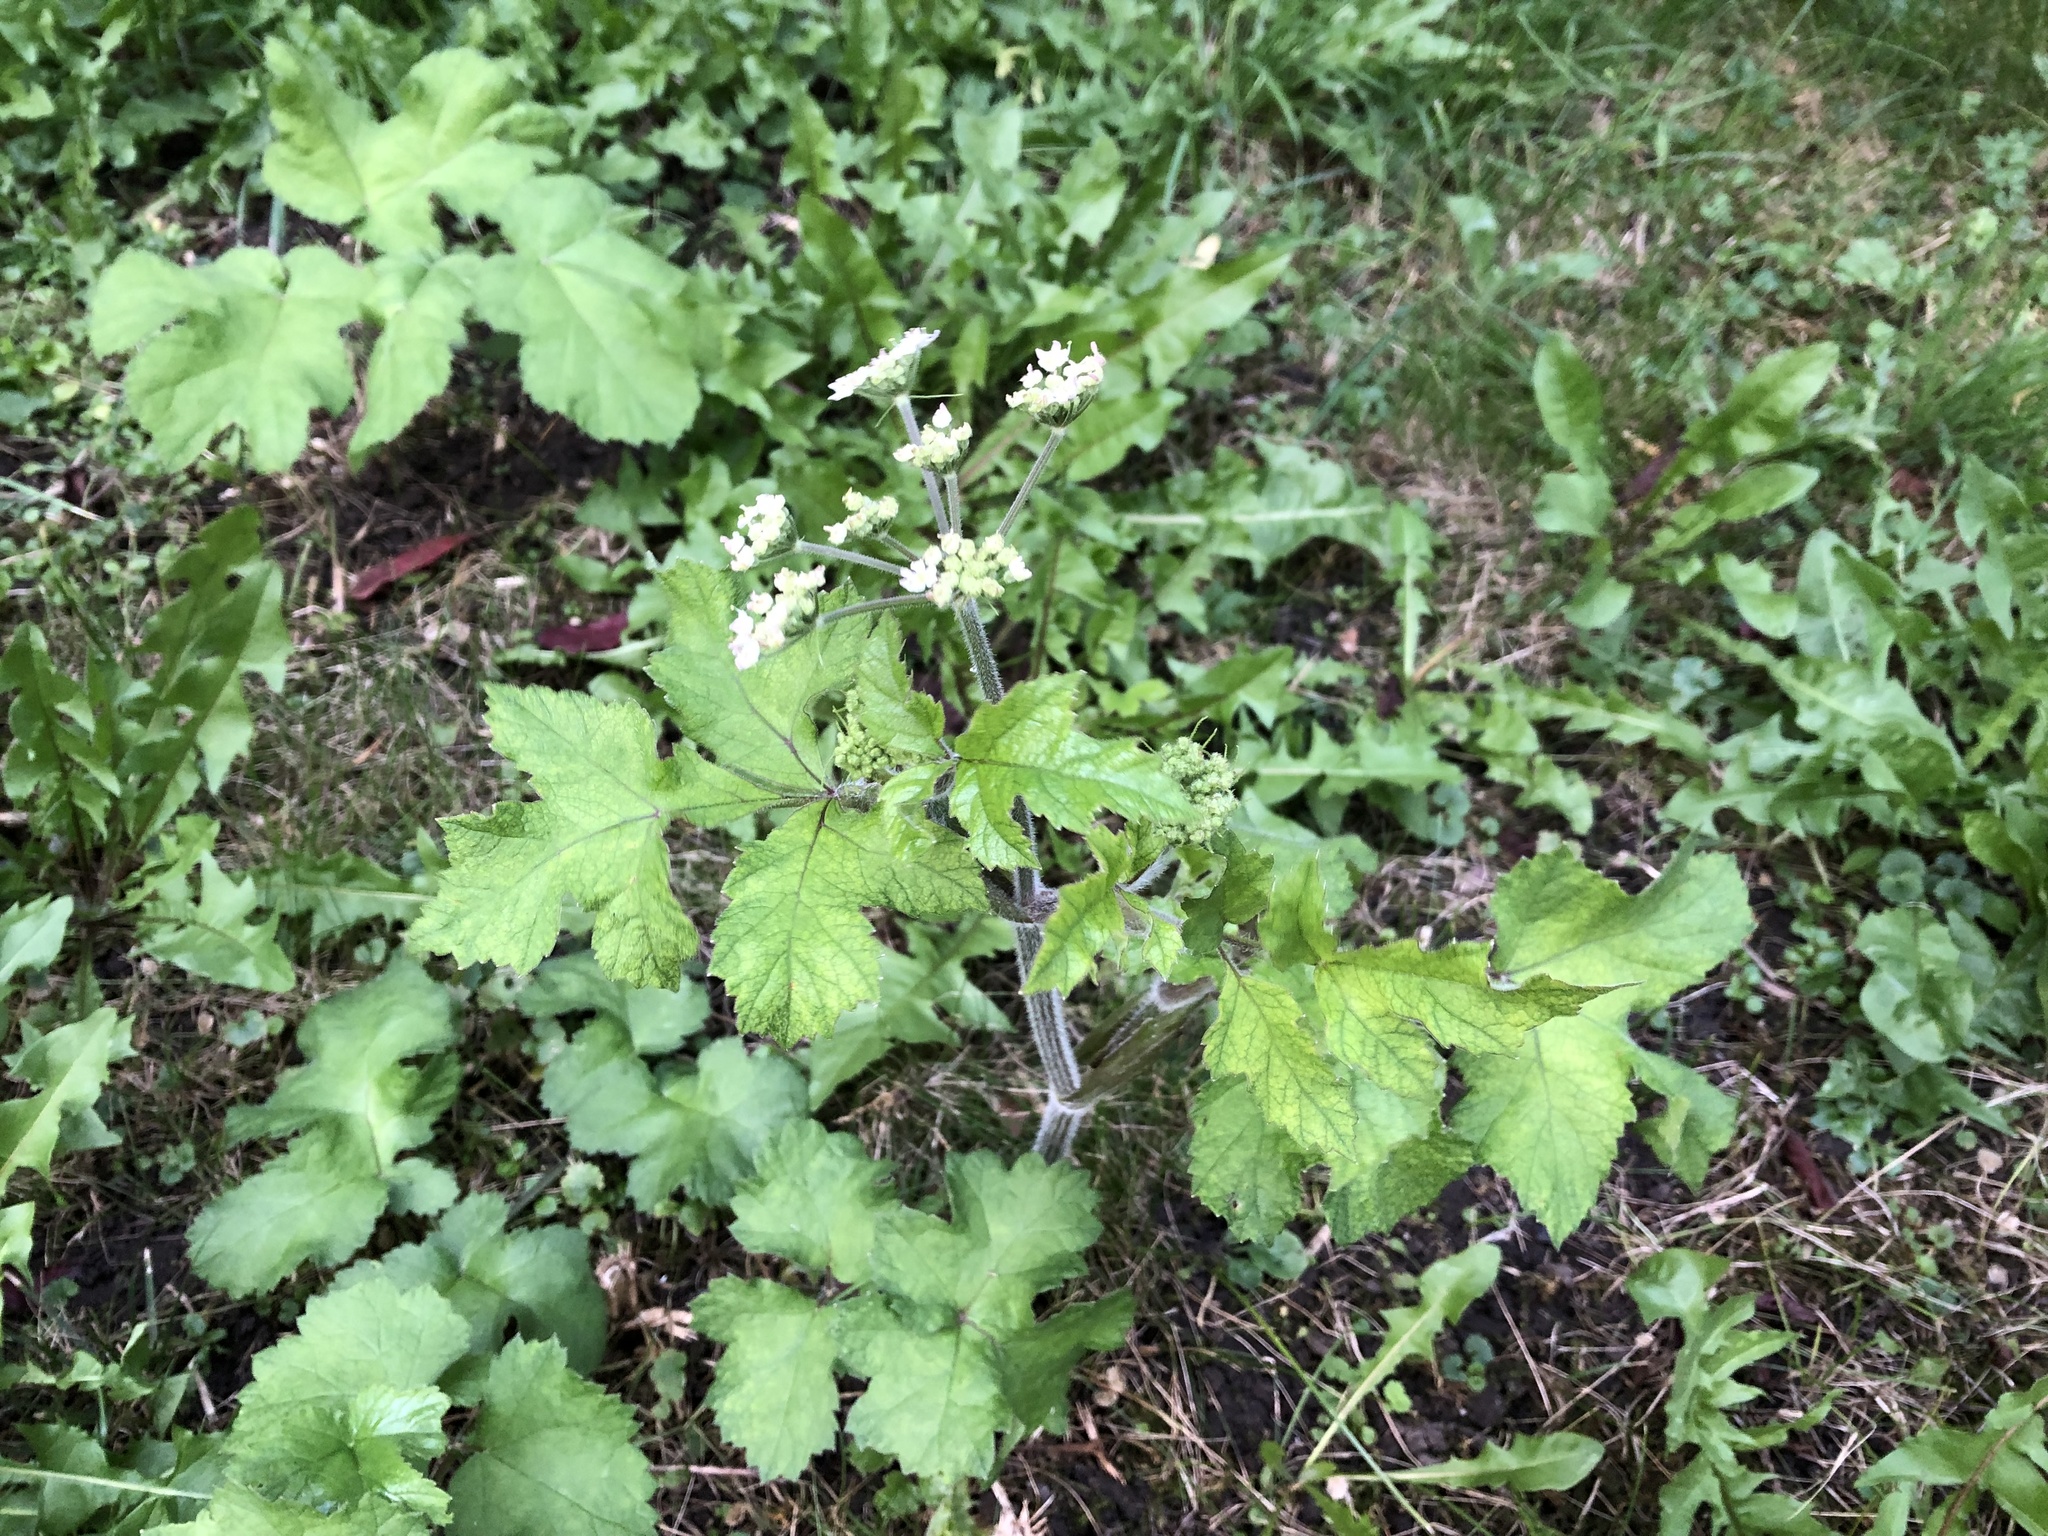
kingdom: Plantae
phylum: Tracheophyta
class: Magnoliopsida
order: Apiales
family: Apiaceae
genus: Heracleum
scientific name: Heracleum sphondylium
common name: Hogweed
